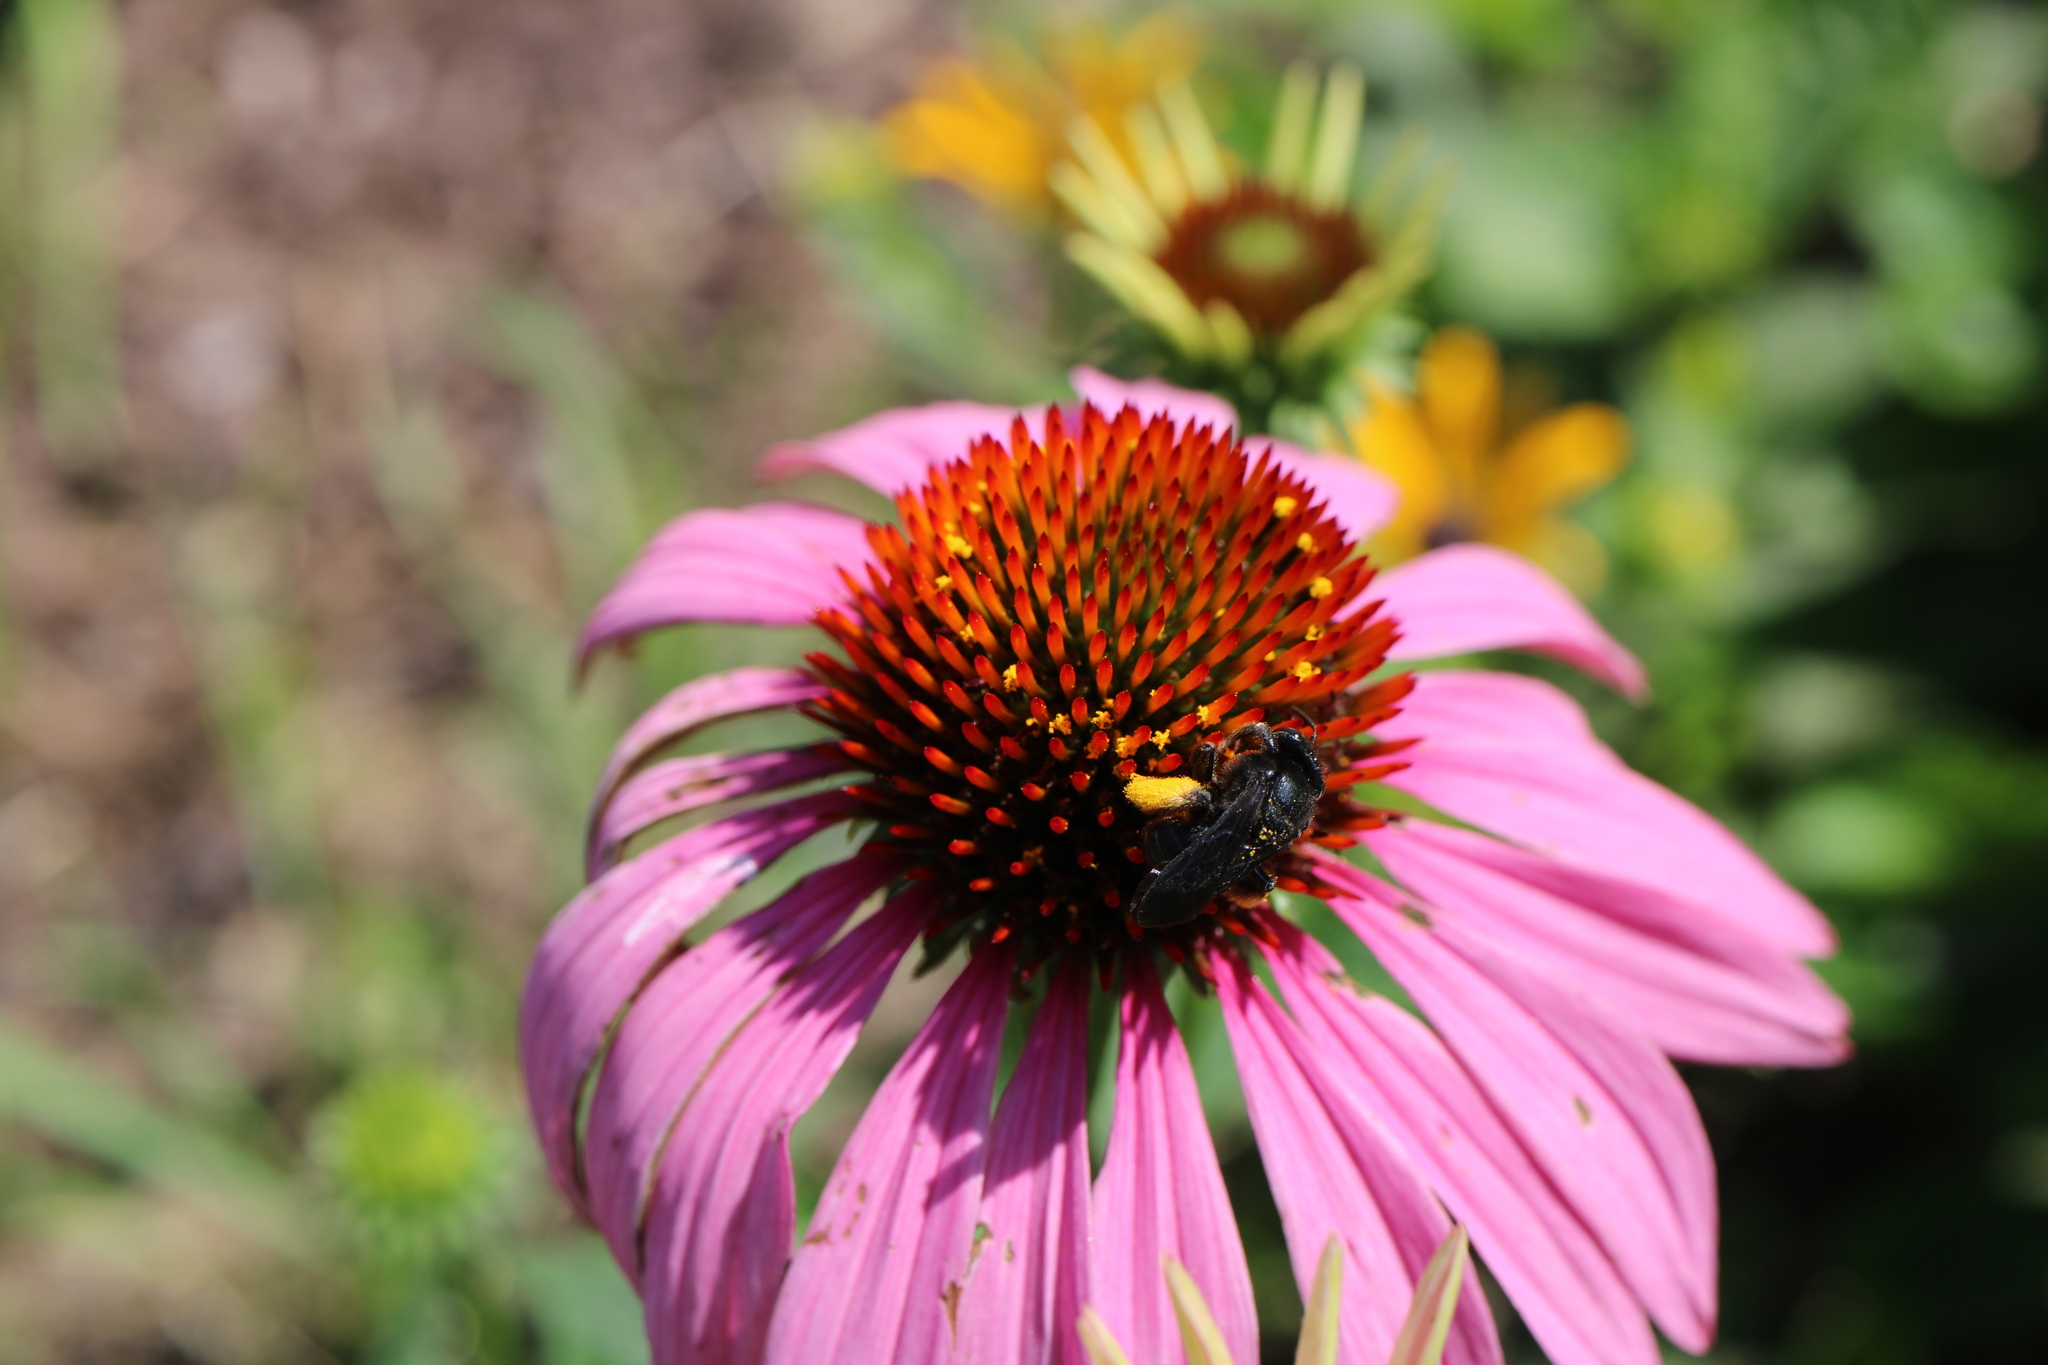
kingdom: Animalia
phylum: Arthropoda
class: Insecta
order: Hymenoptera
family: Apidae
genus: Melissodes
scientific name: Melissodes bimaculatus
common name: Two-spotted long-horned bee
